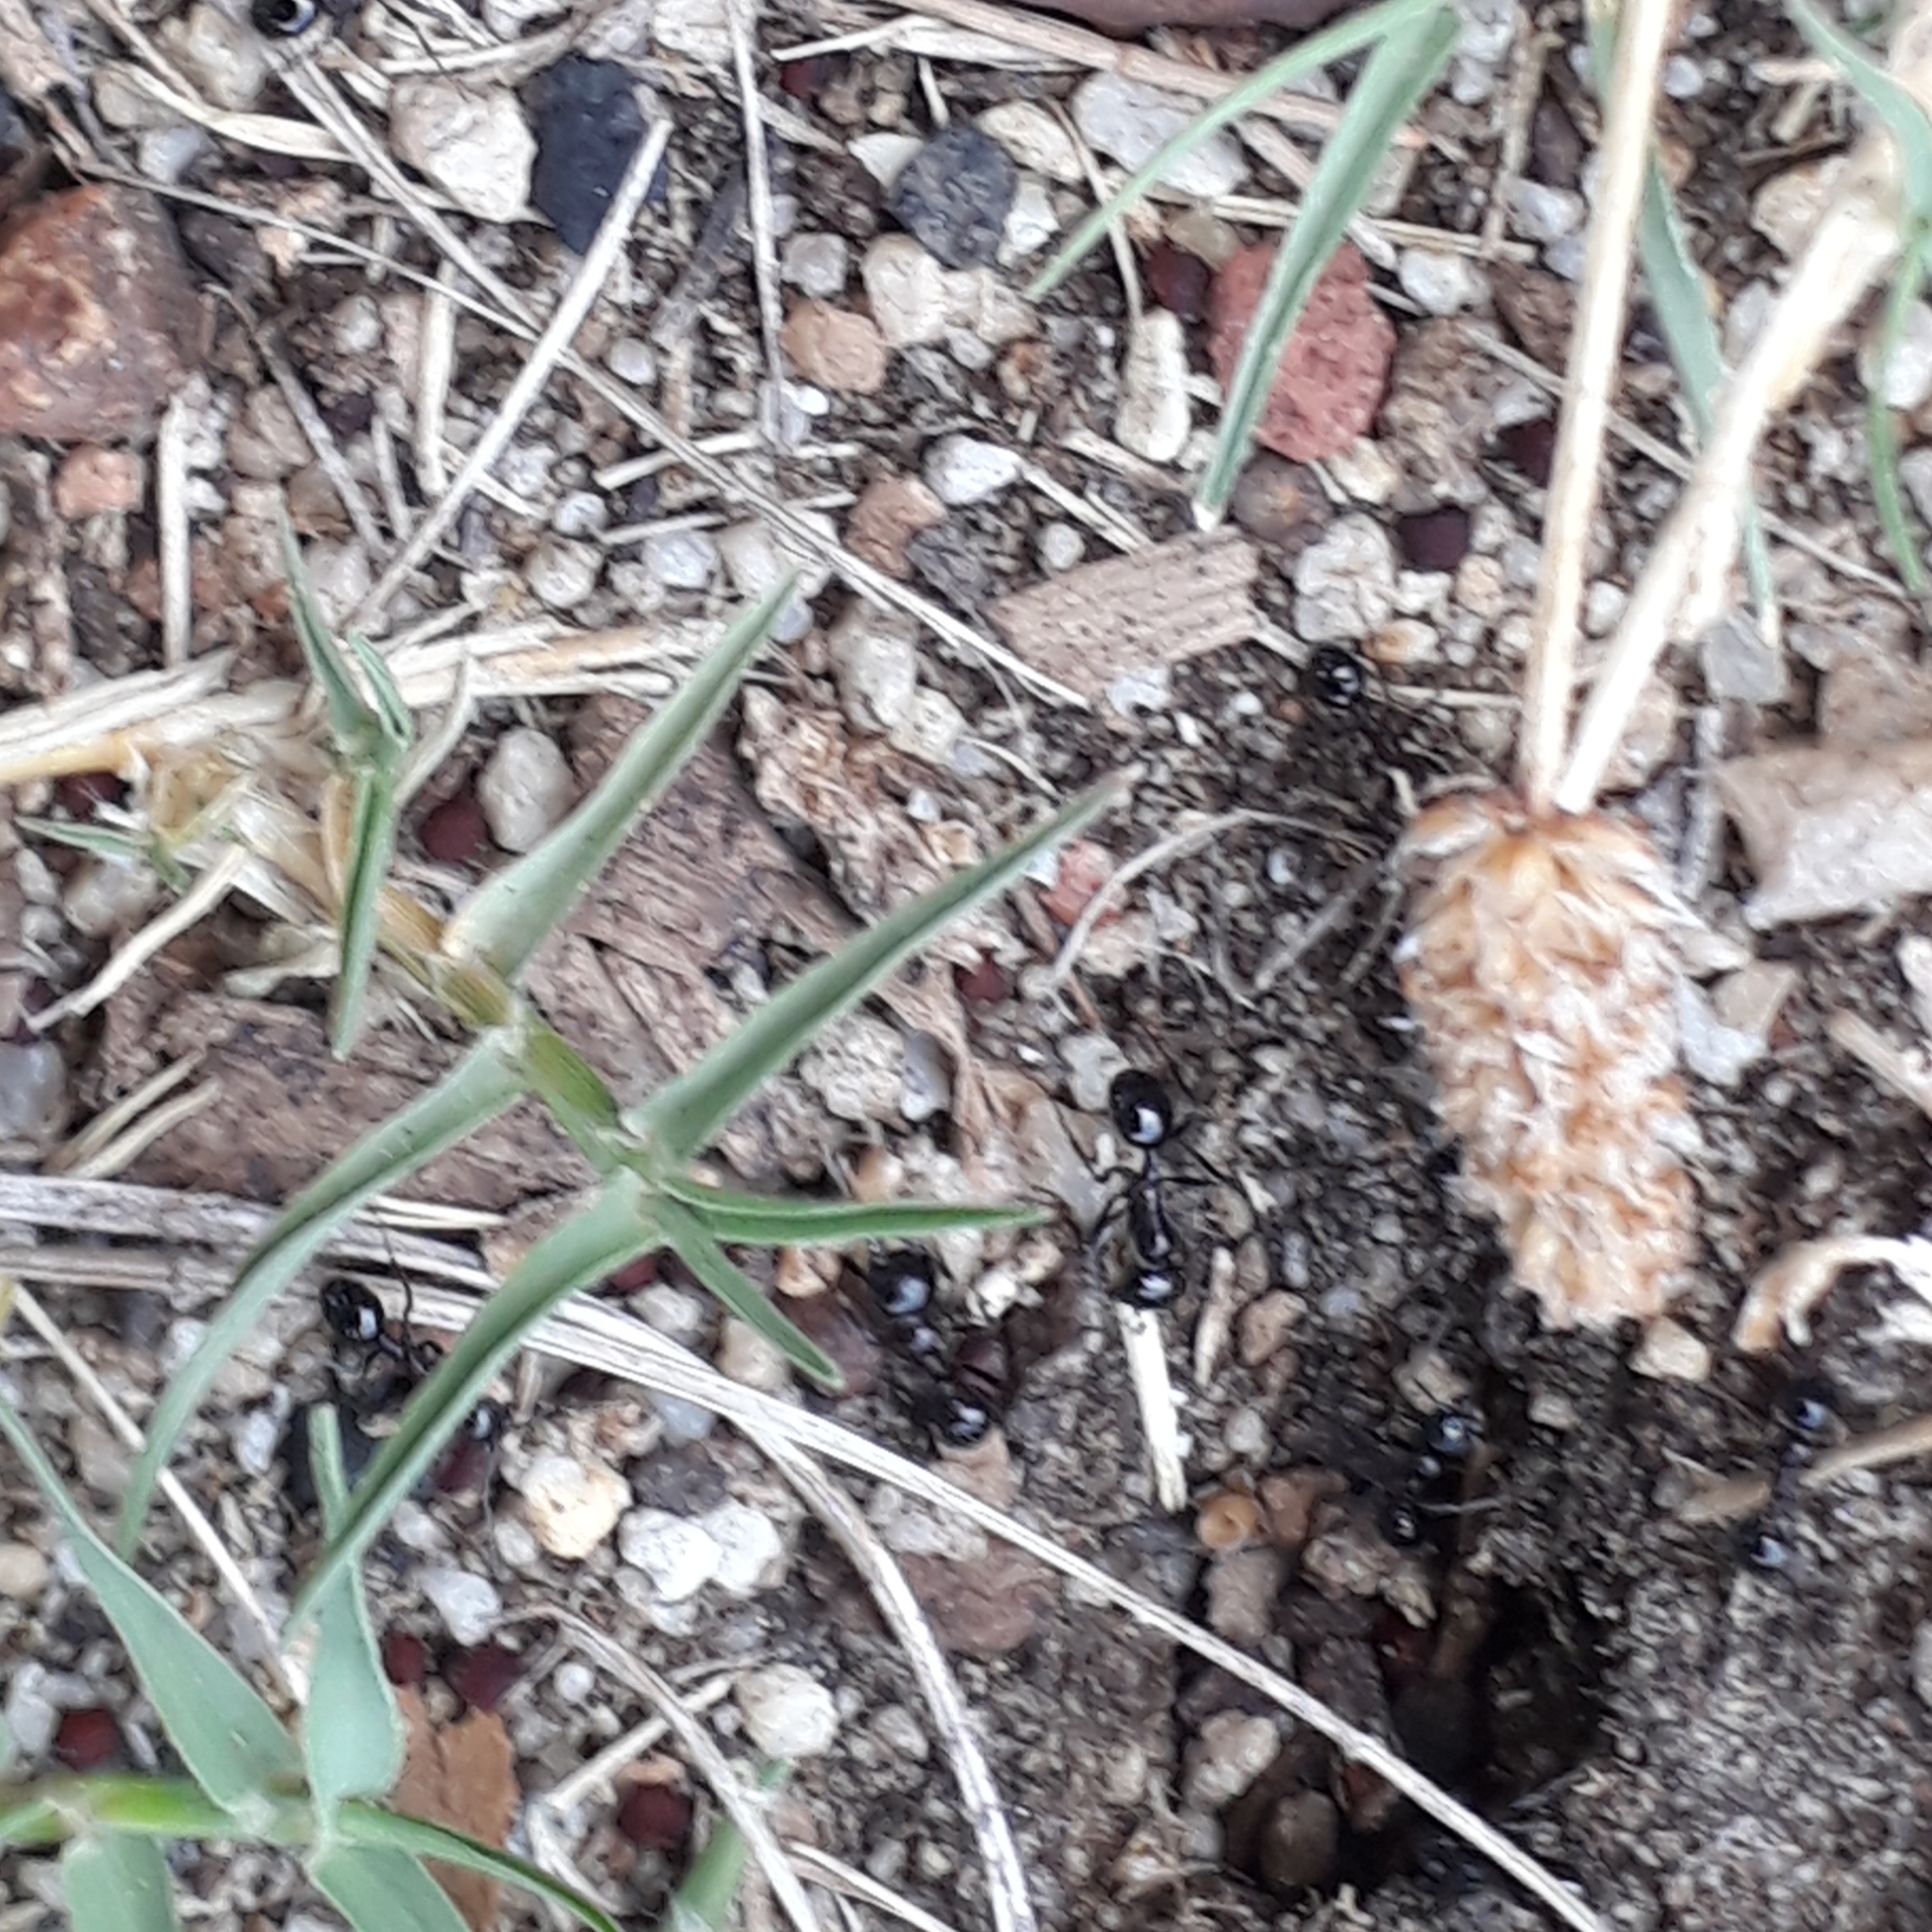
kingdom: Animalia
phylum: Arthropoda
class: Insecta
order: Hymenoptera
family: Formicidae
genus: Messor
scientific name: Messor capensis
